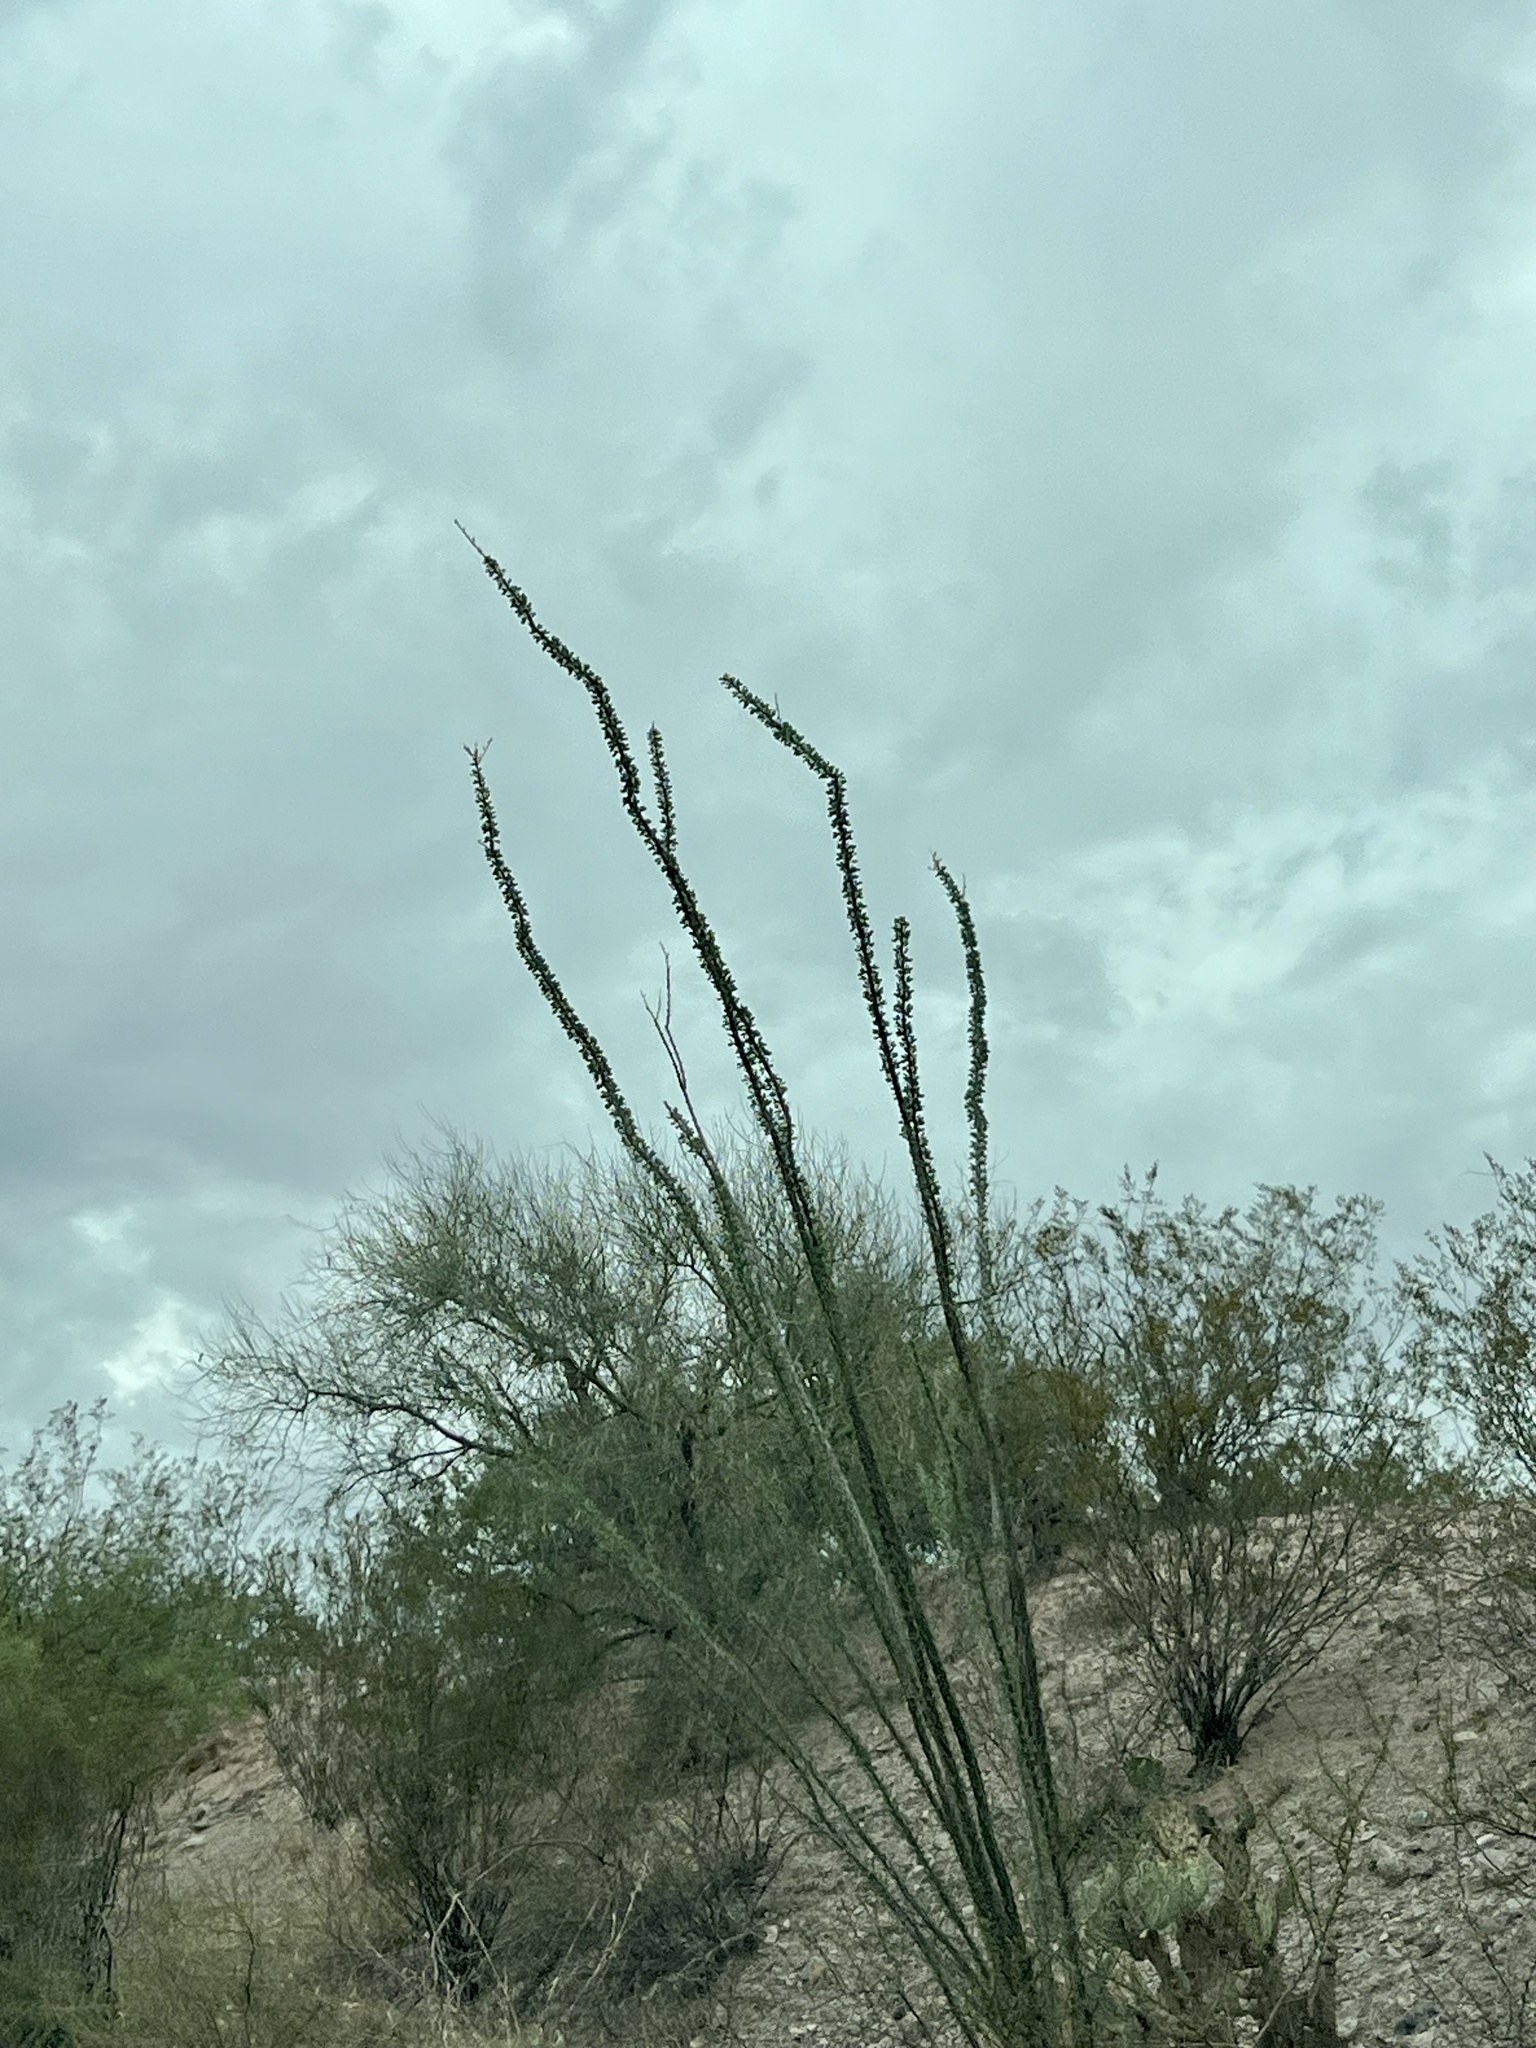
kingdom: Plantae
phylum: Tracheophyta
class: Magnoliopsida
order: Ericales
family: Fouquieriaceae
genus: Fouquieria
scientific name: Fouquieria splendens
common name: Vine-cactus
